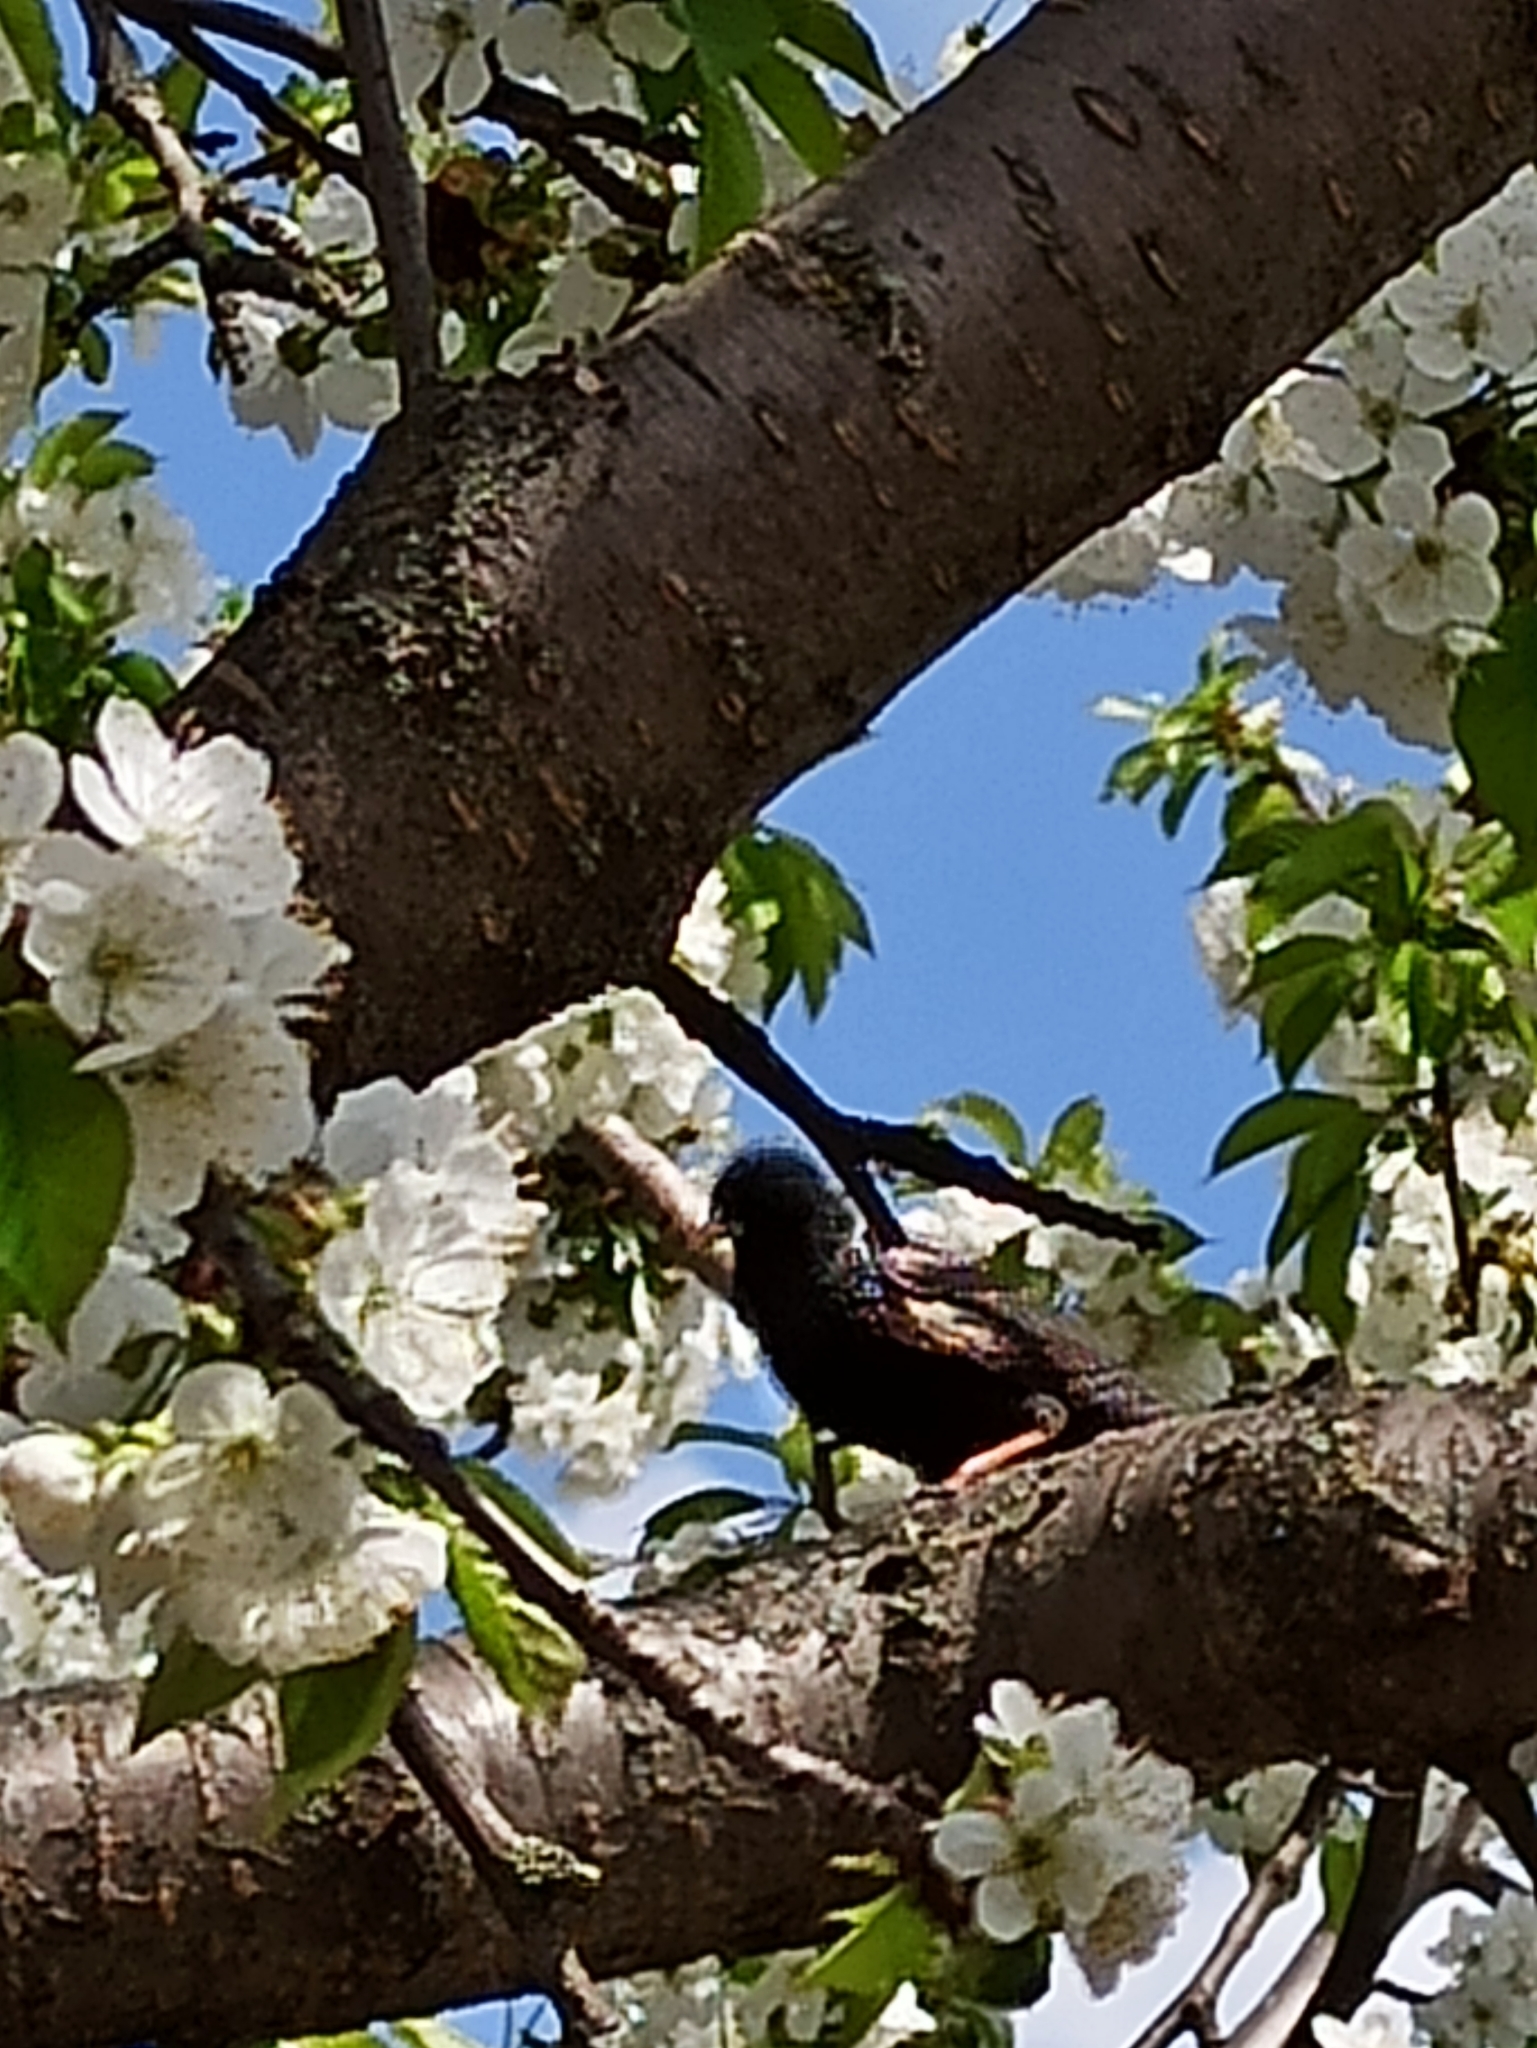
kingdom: Animalia
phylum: Chordata
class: Aves
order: Passeriformes
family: Sturnidae
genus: Sturnus
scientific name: Sturnus vulgaris
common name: Common starling
